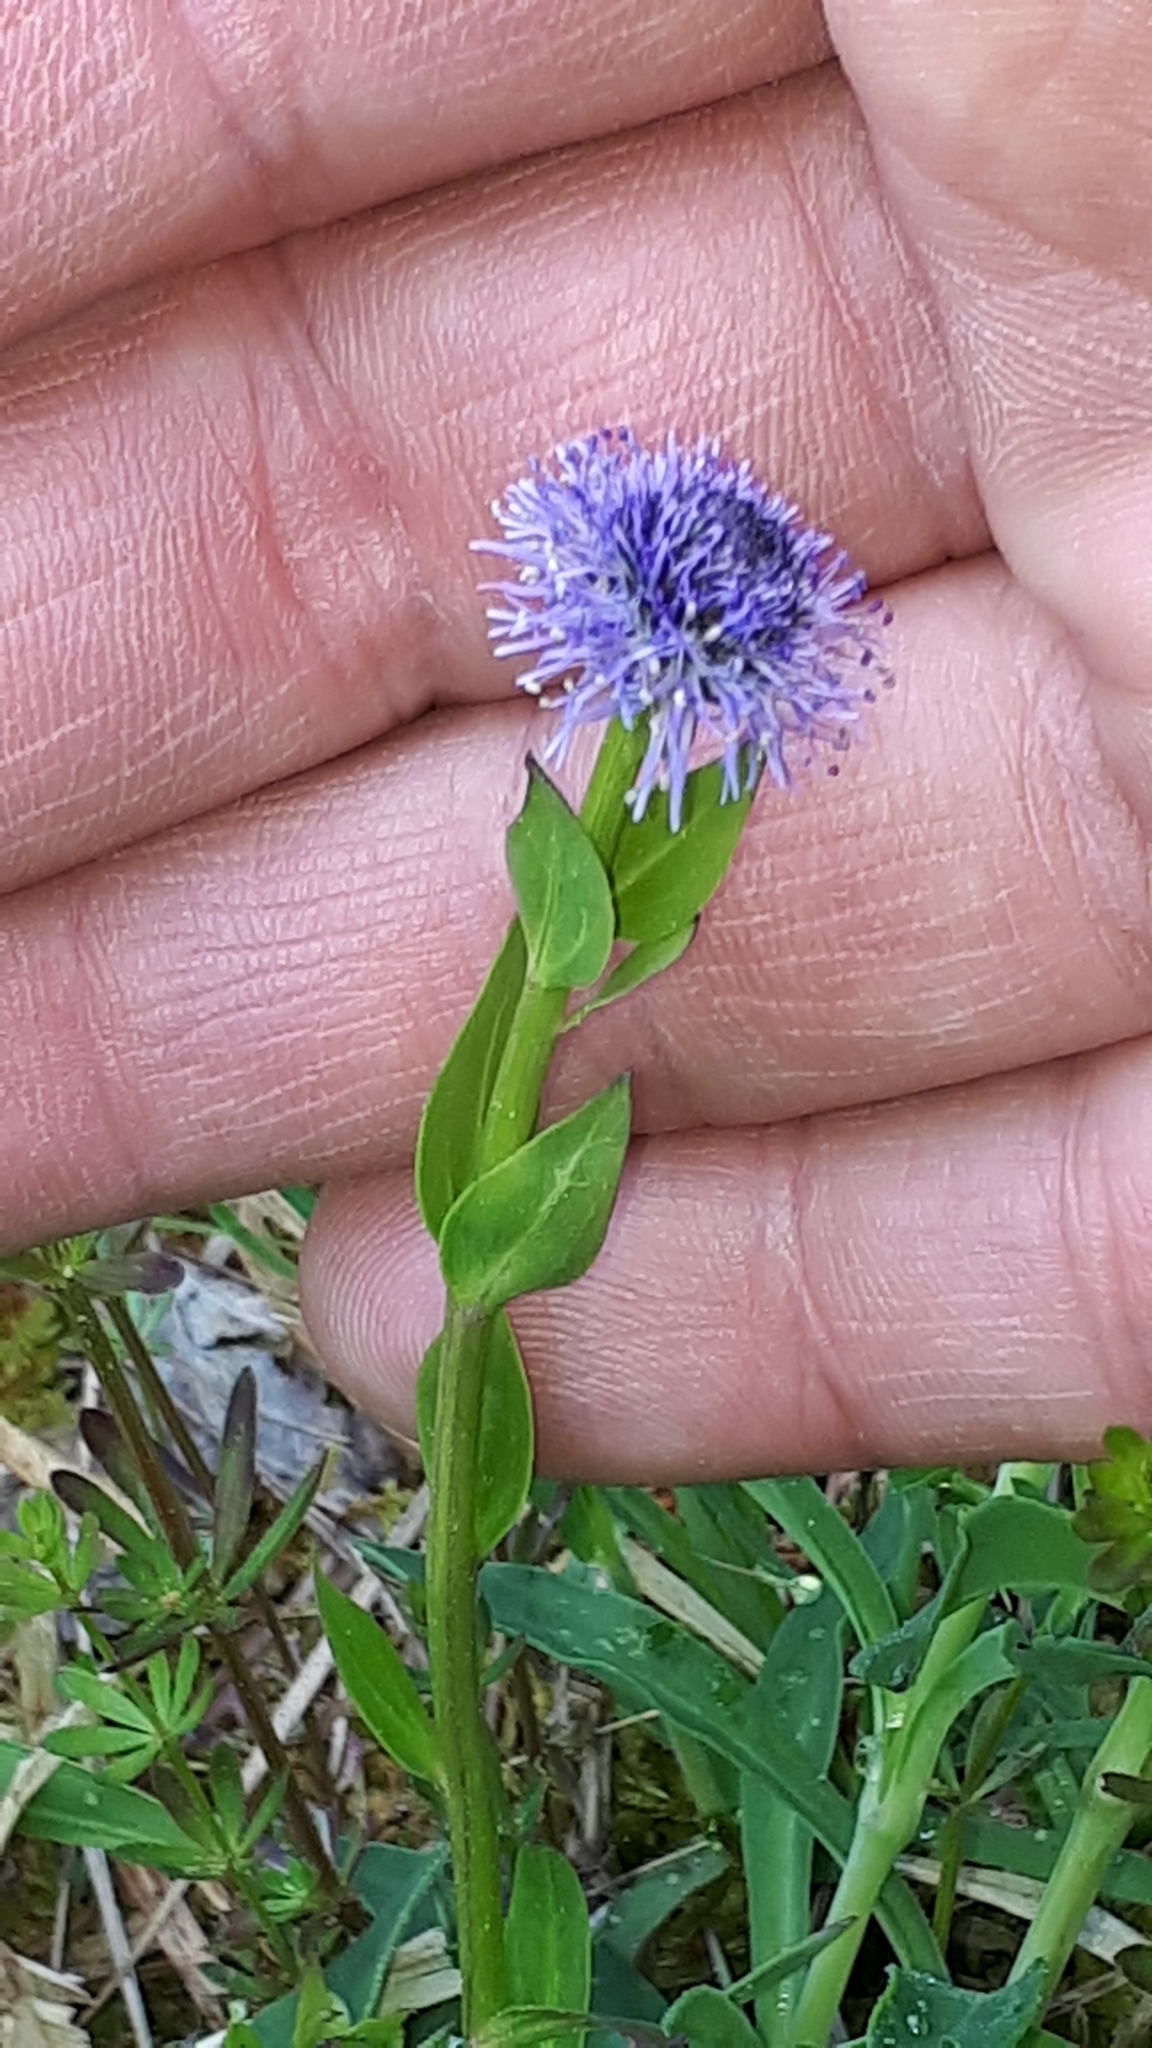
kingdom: Plantae
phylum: Tracheophyta
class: Magnoliopsida
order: Lamiales
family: Plantaginaceae
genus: Globularia
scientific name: Globularia bisnagarica
